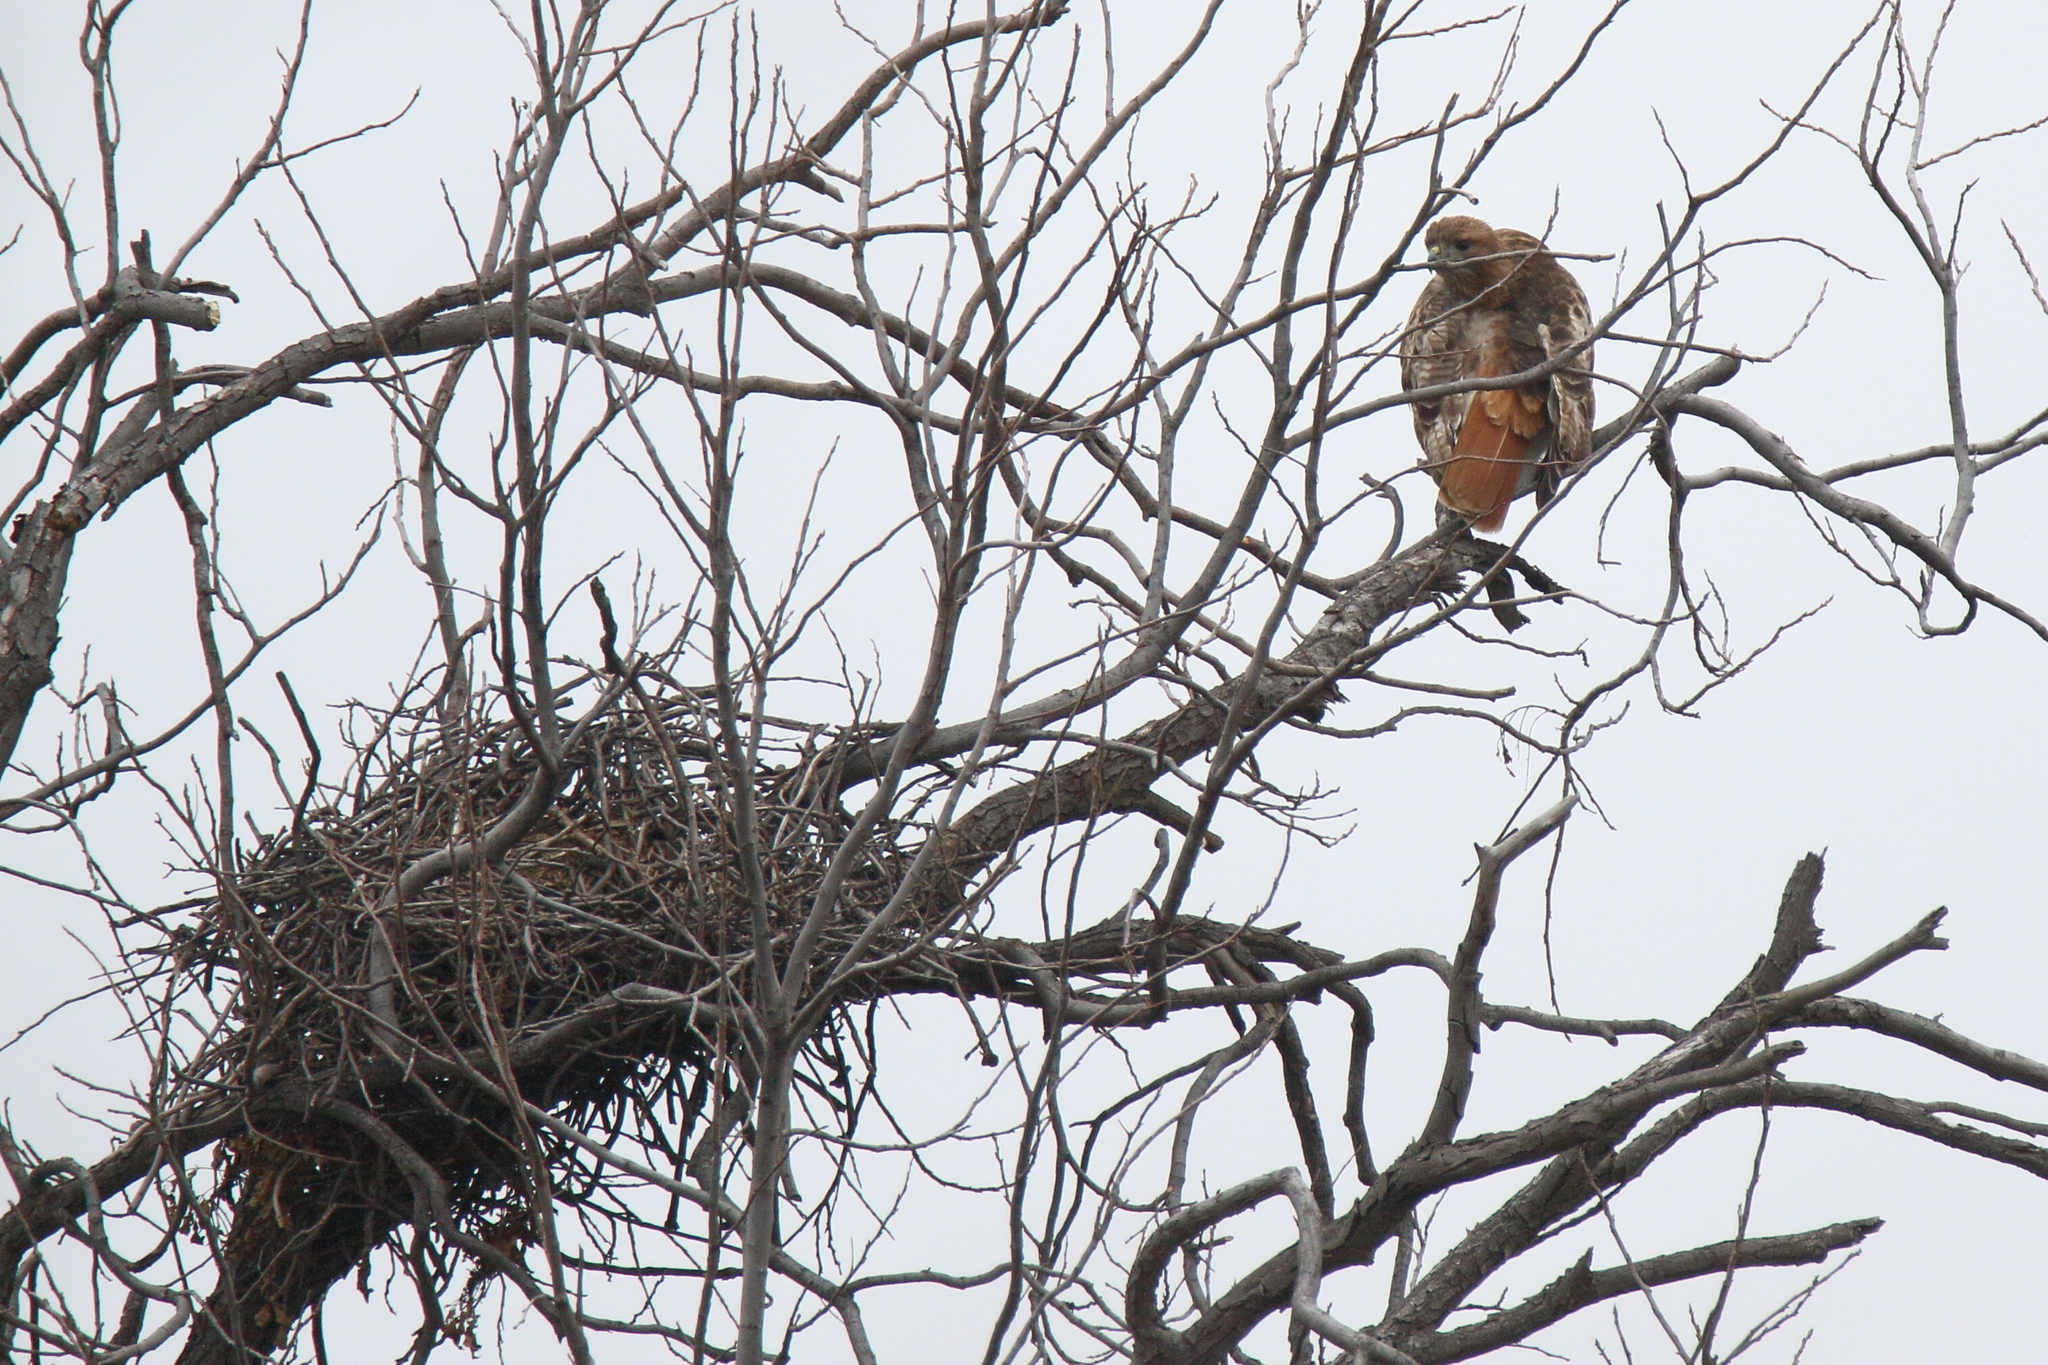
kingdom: Animalia
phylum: Chordata
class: Aves
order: Accipitriformes
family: Accipitridae
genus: Buteo
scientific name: Buteo jamaicensis
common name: Red-tailed hawk
